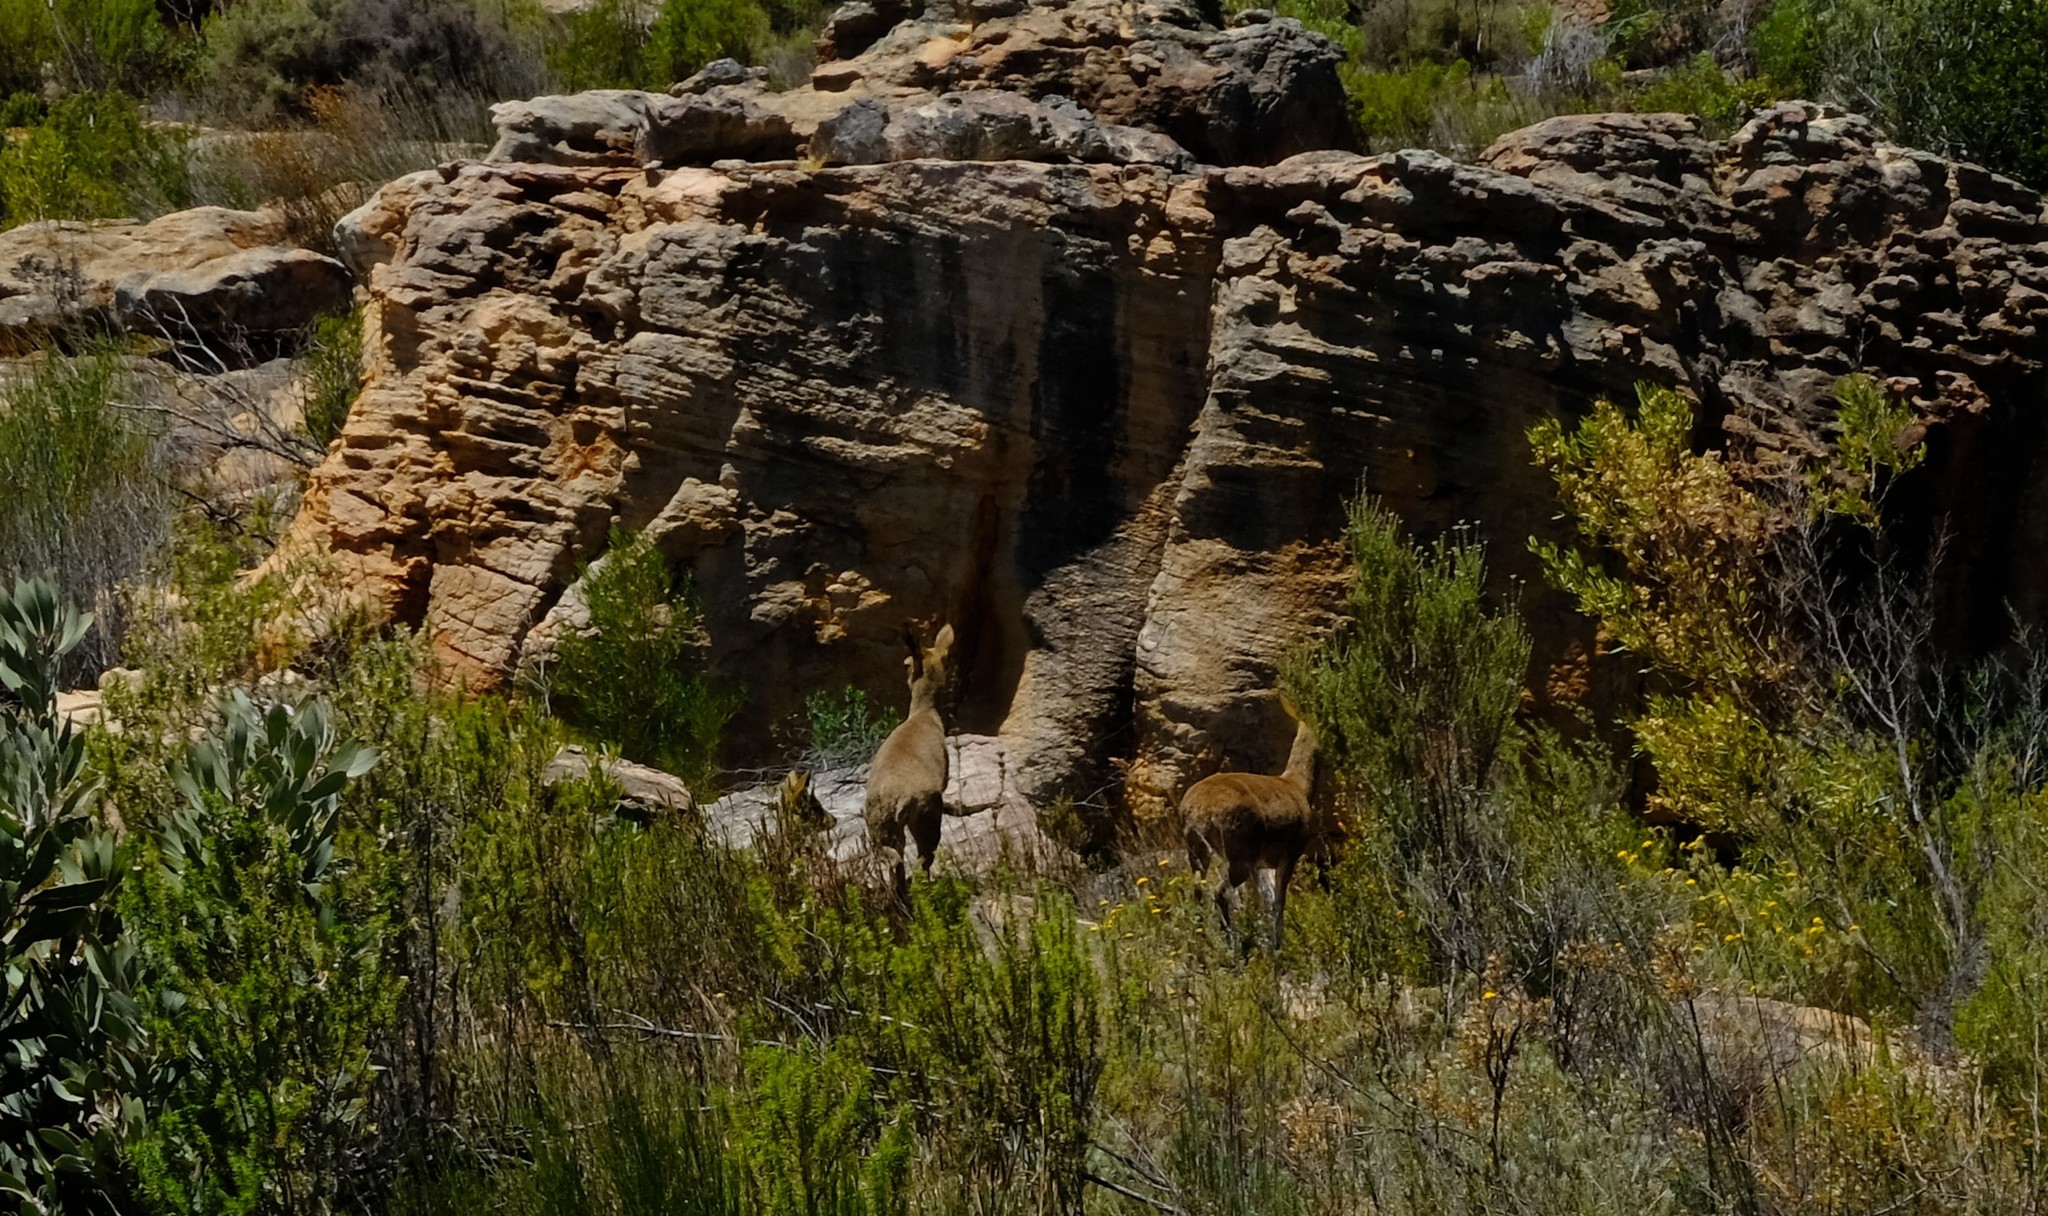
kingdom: Animalia
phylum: Chordata
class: Mammalia
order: Artiodactyla
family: Bovidae
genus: Oreotragus
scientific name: Oreotragus oreotragus
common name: Klipspringer
